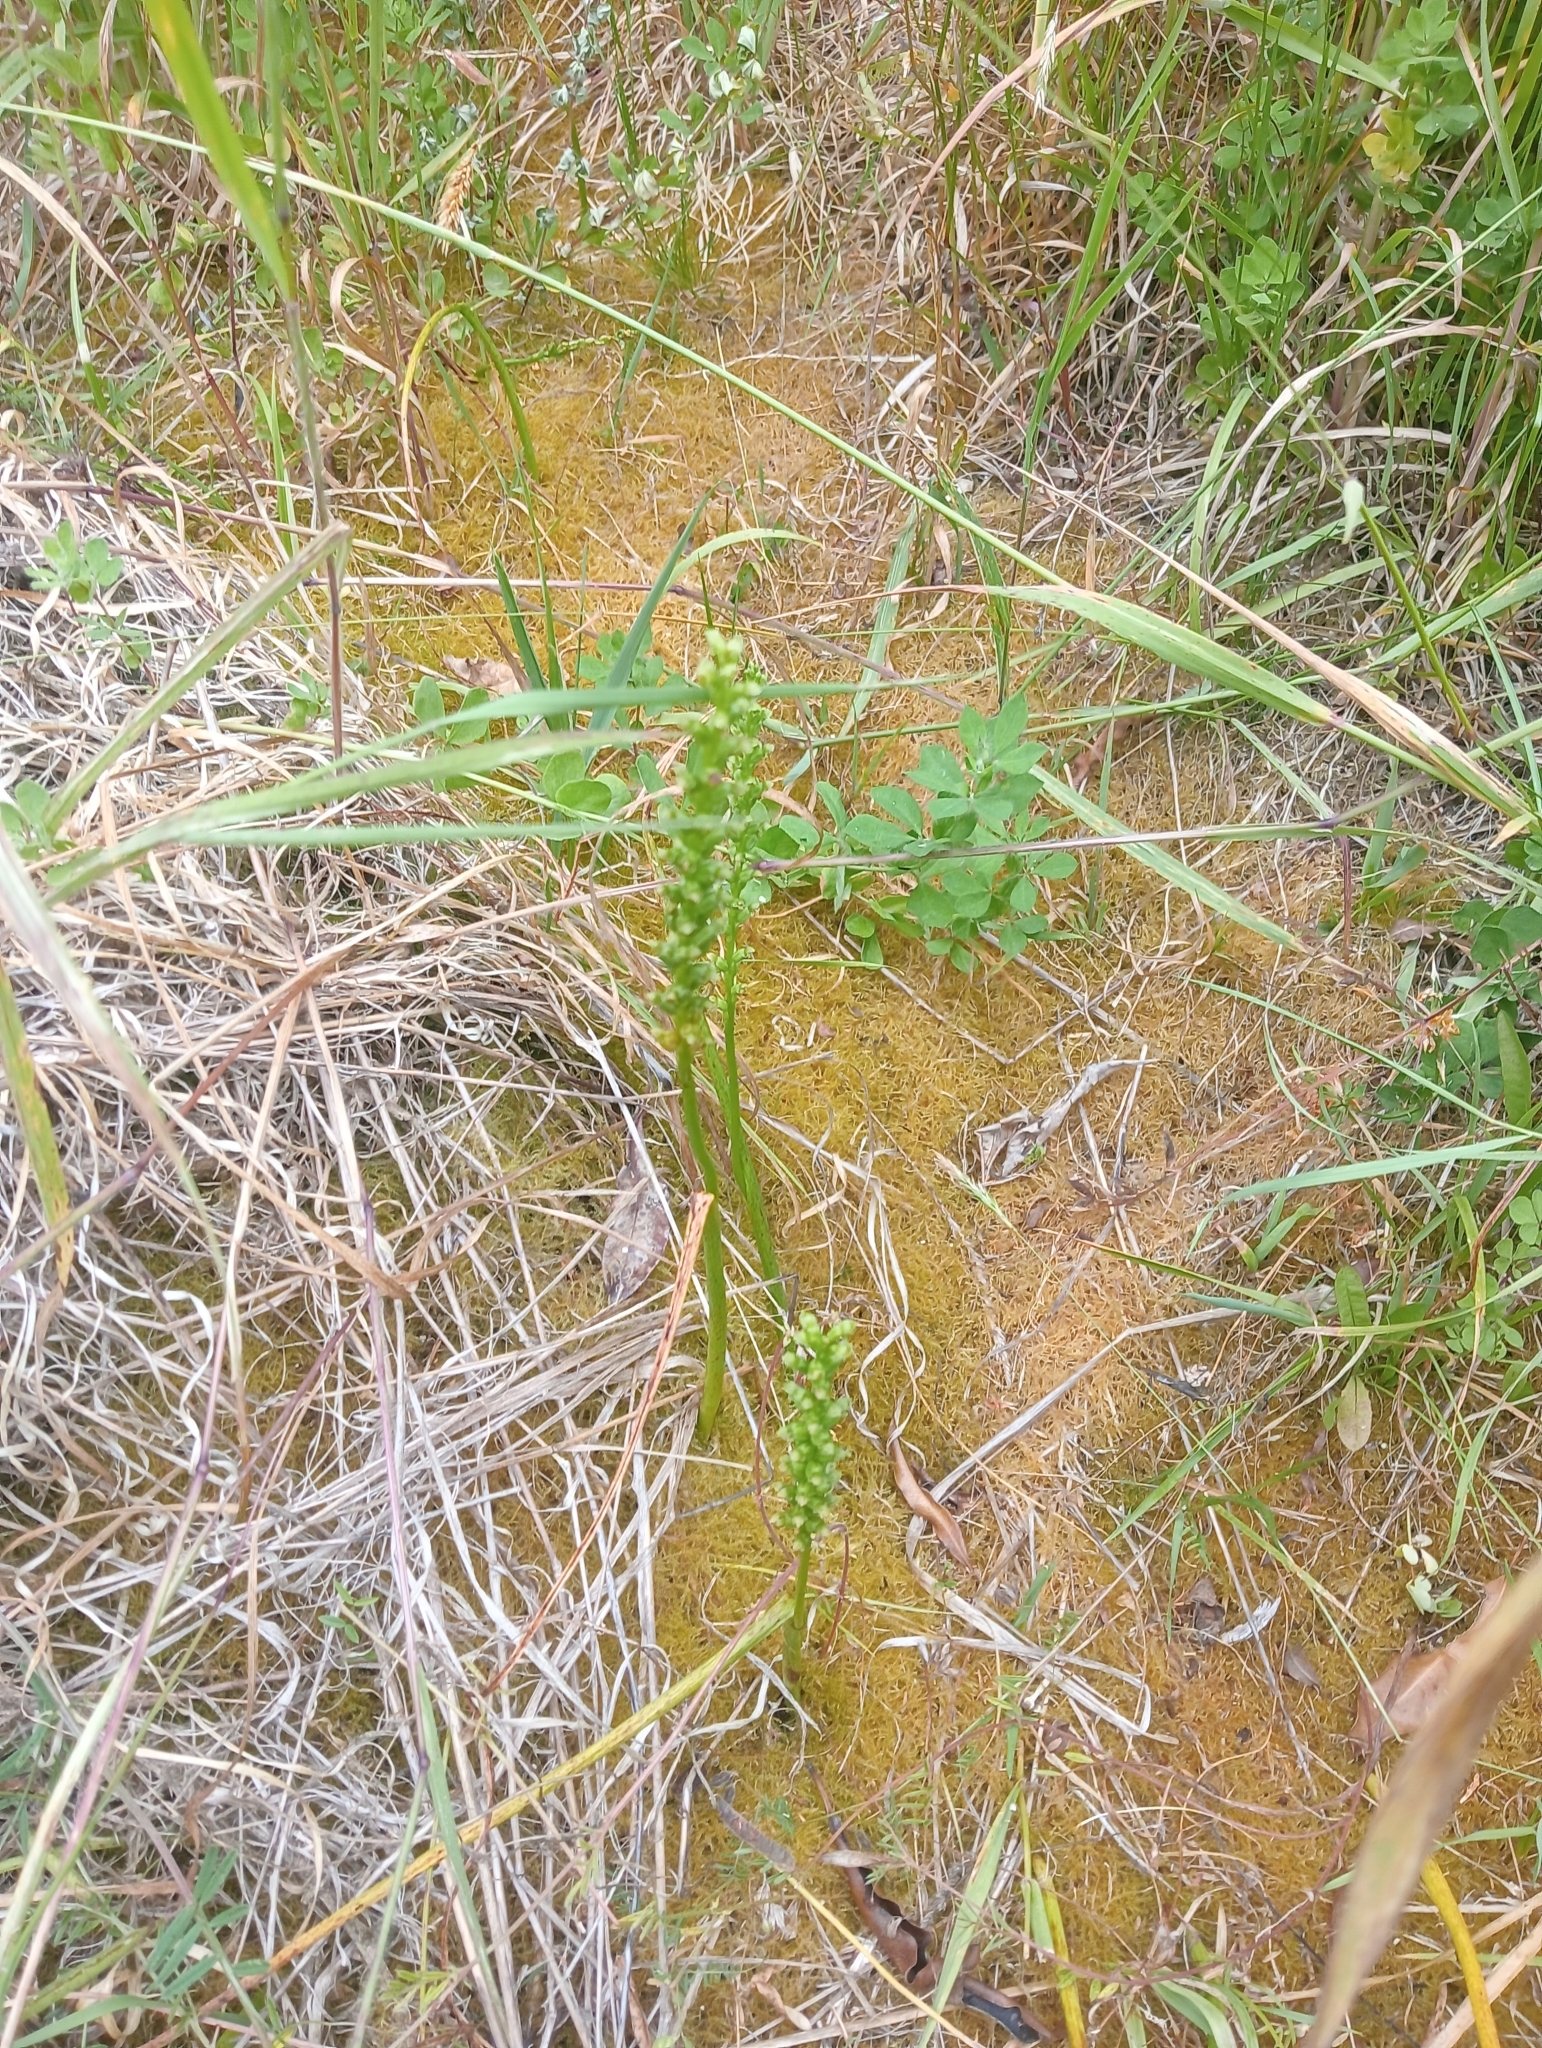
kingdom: Plantae
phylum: Tracheophyta
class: Liliopsida
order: Asparagales
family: Orchidaceae
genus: Microtis
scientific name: Microtis unifolia
